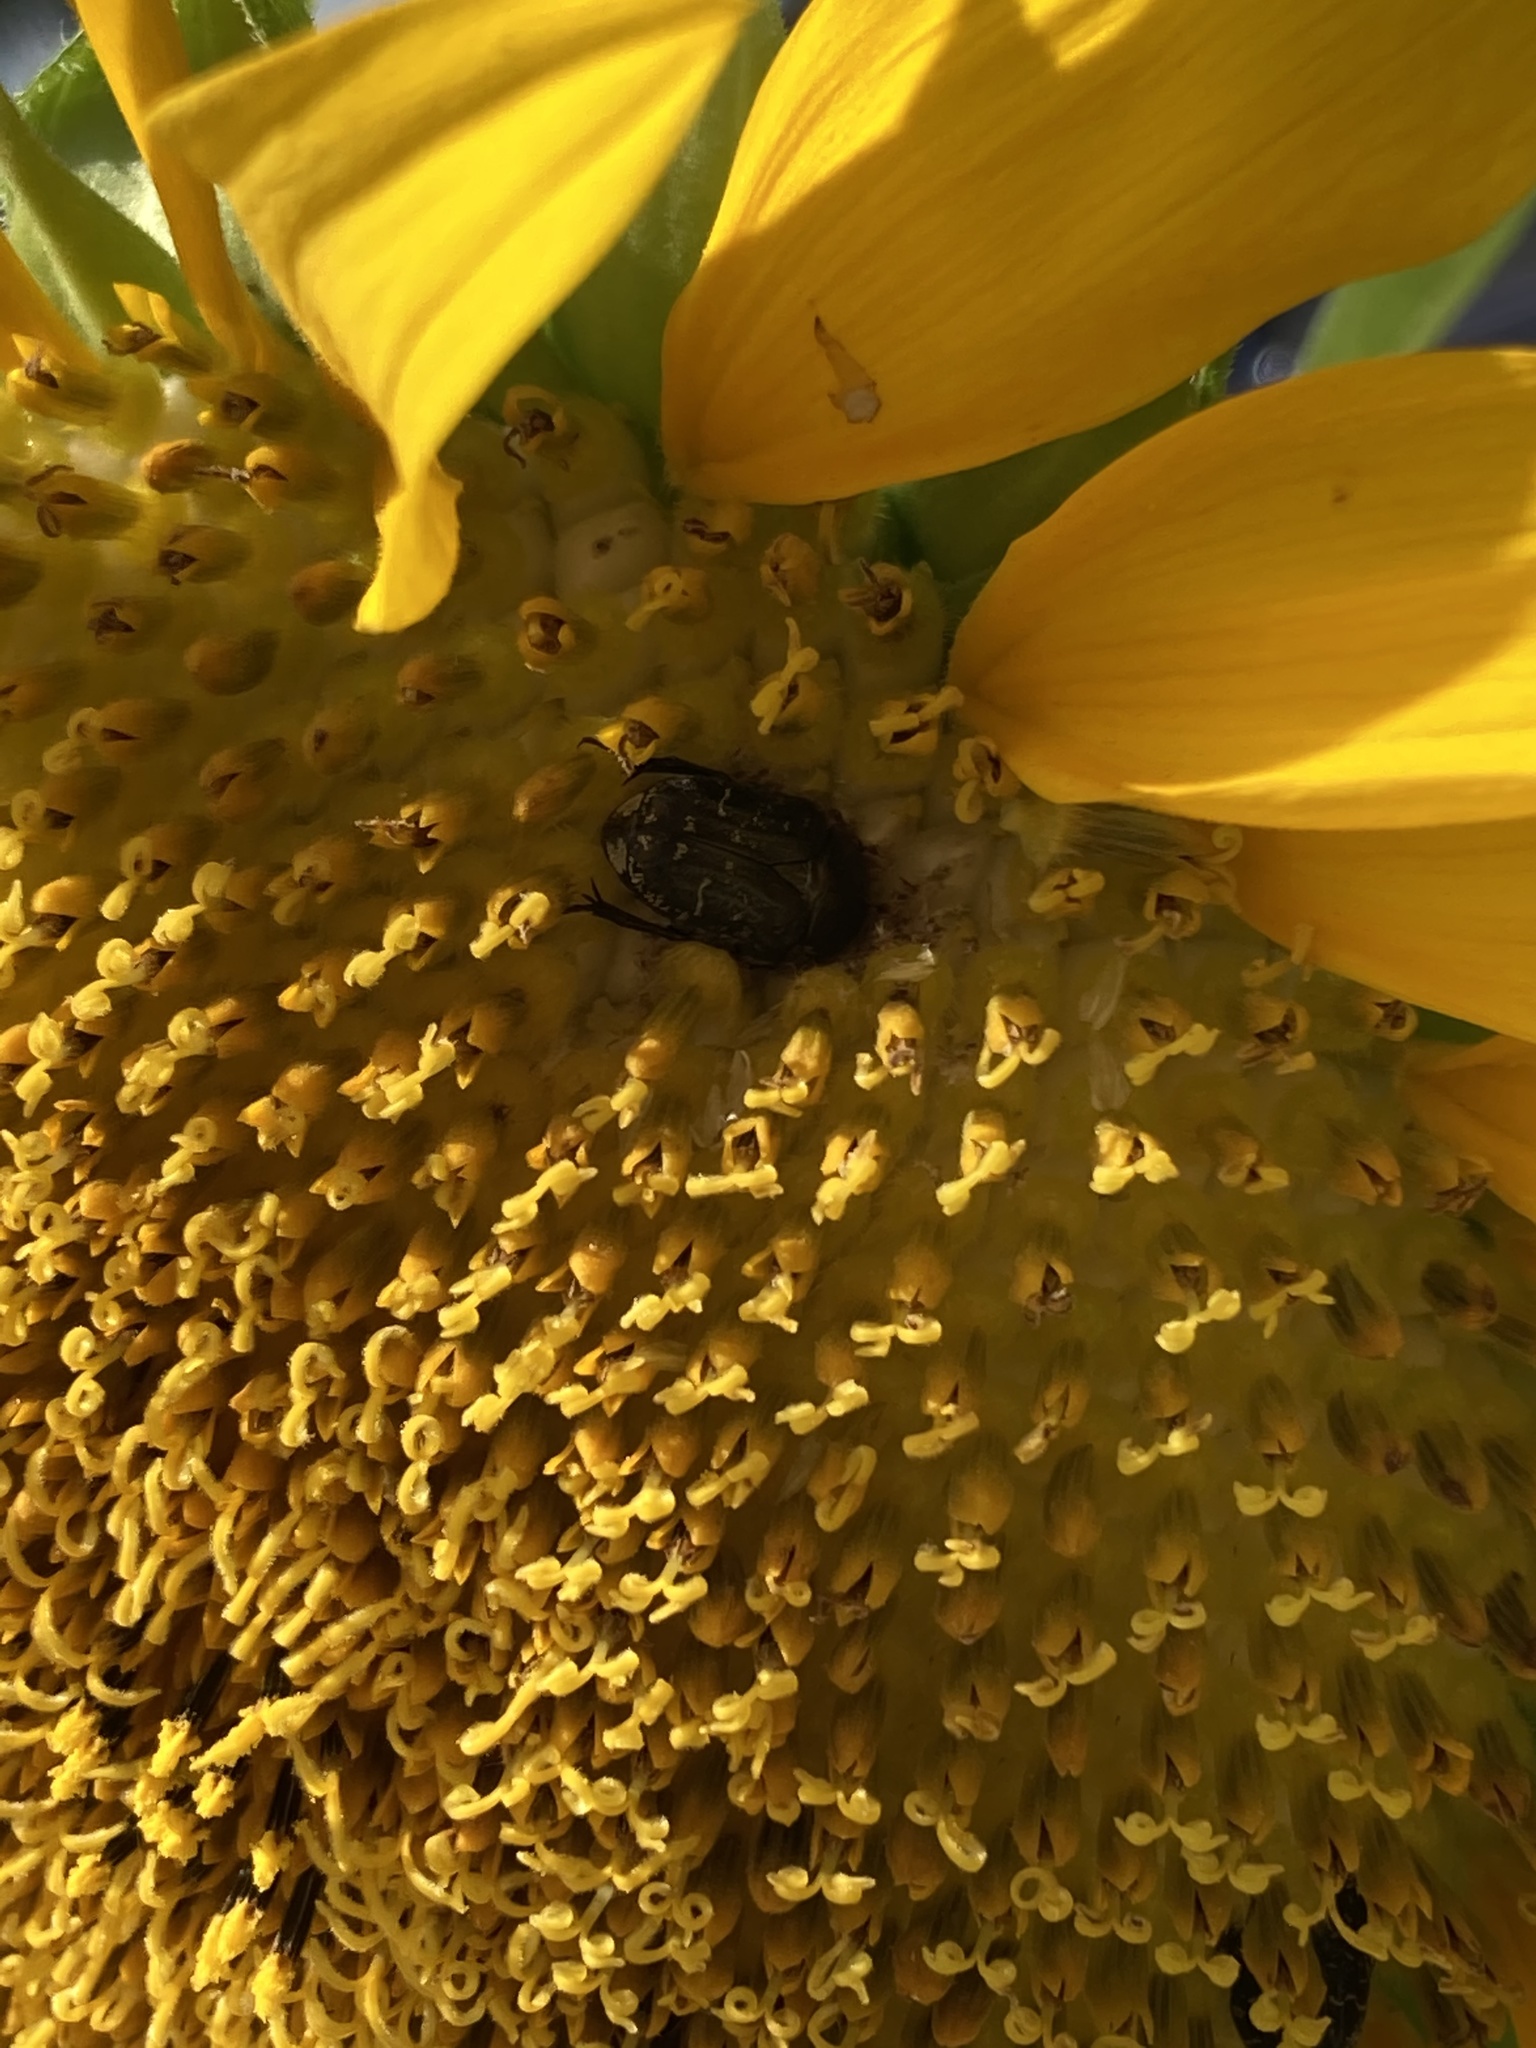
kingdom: Animalia
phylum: Arthropoda
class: Insecta
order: Coleoptera
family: Scarabaeidae
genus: Euphoria
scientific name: Euphoria sepulcralis
